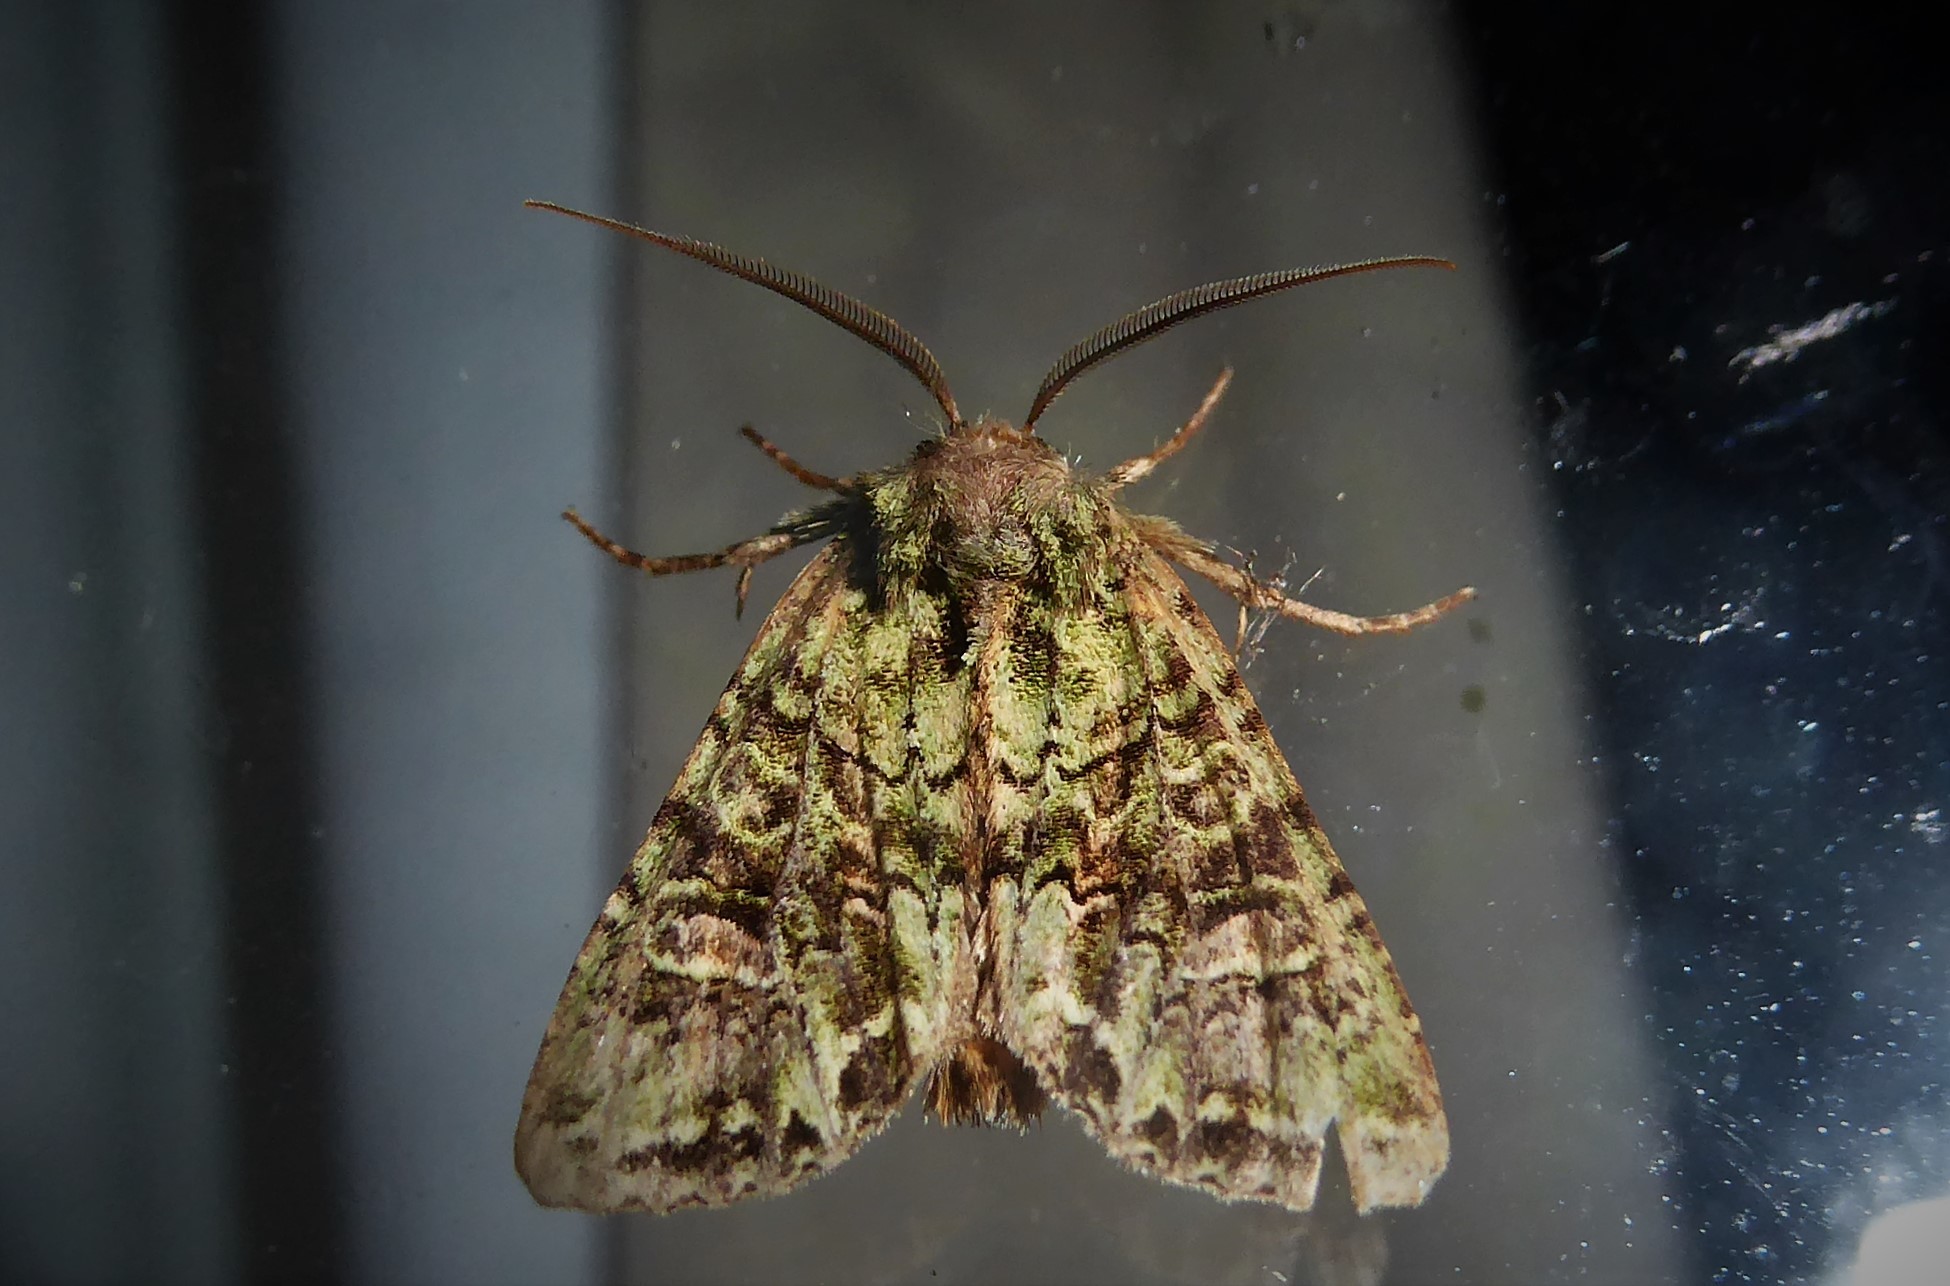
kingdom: Animalia
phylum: Arthropoda
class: Insecta
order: Lepidoptera
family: Noctuidae
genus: Ichneutica
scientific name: Ichneutica
